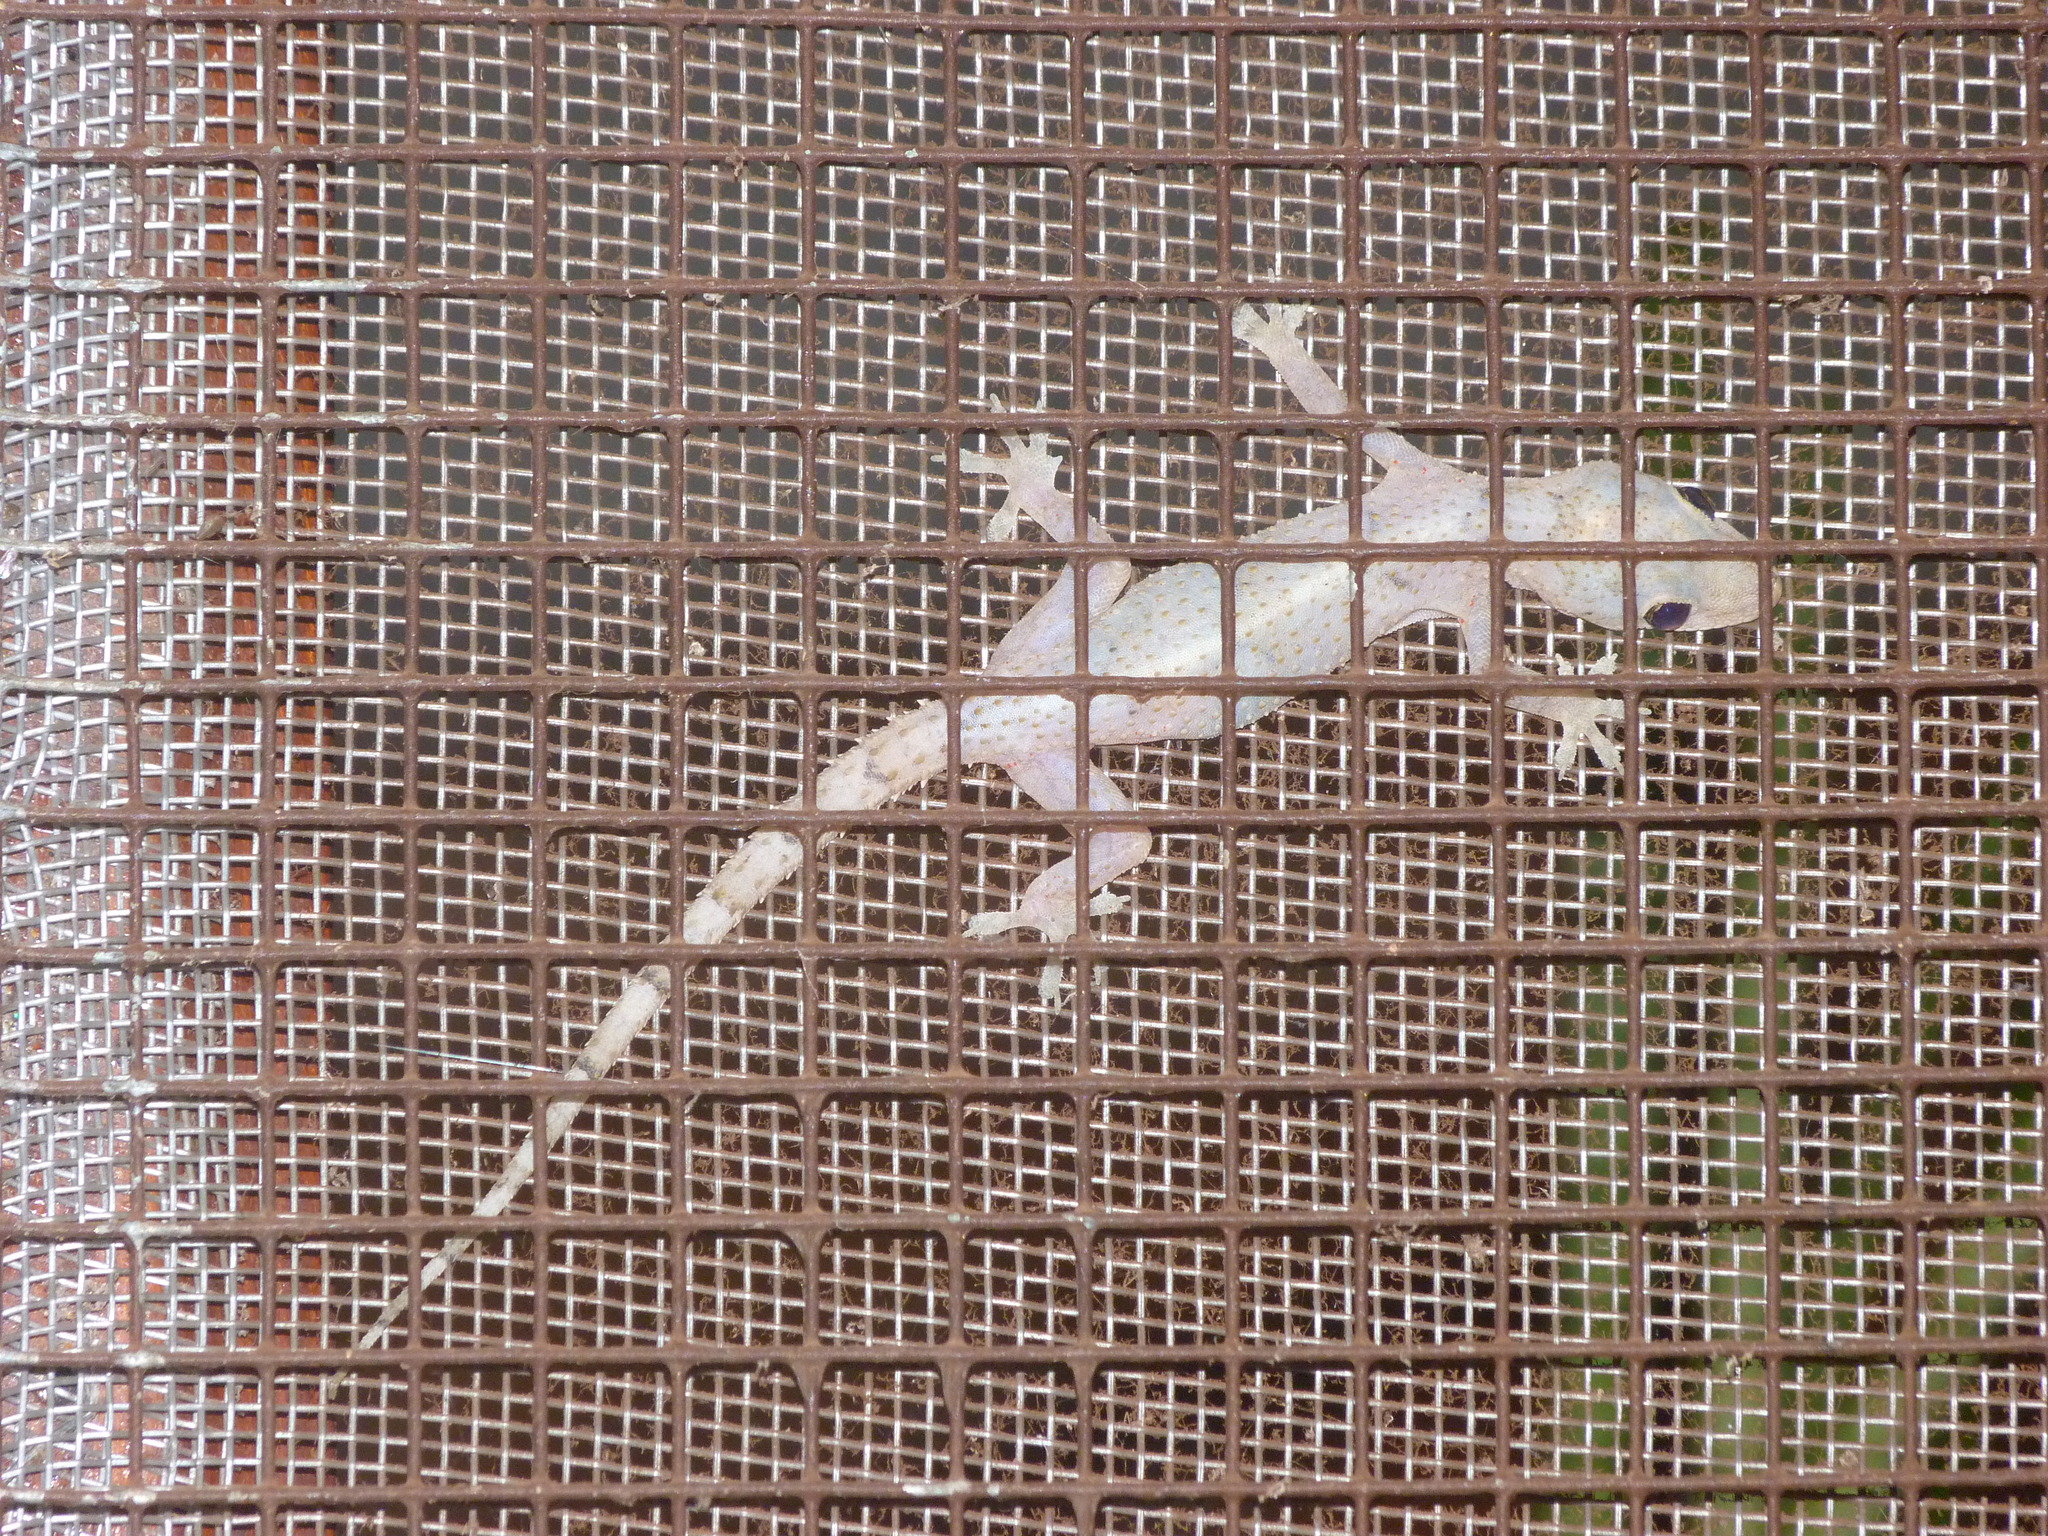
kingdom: Animalia
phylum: Chordata
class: Squamata
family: Gekkonidae
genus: Hemidactylus
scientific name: Hemidactylus mabouia
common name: House gecko
